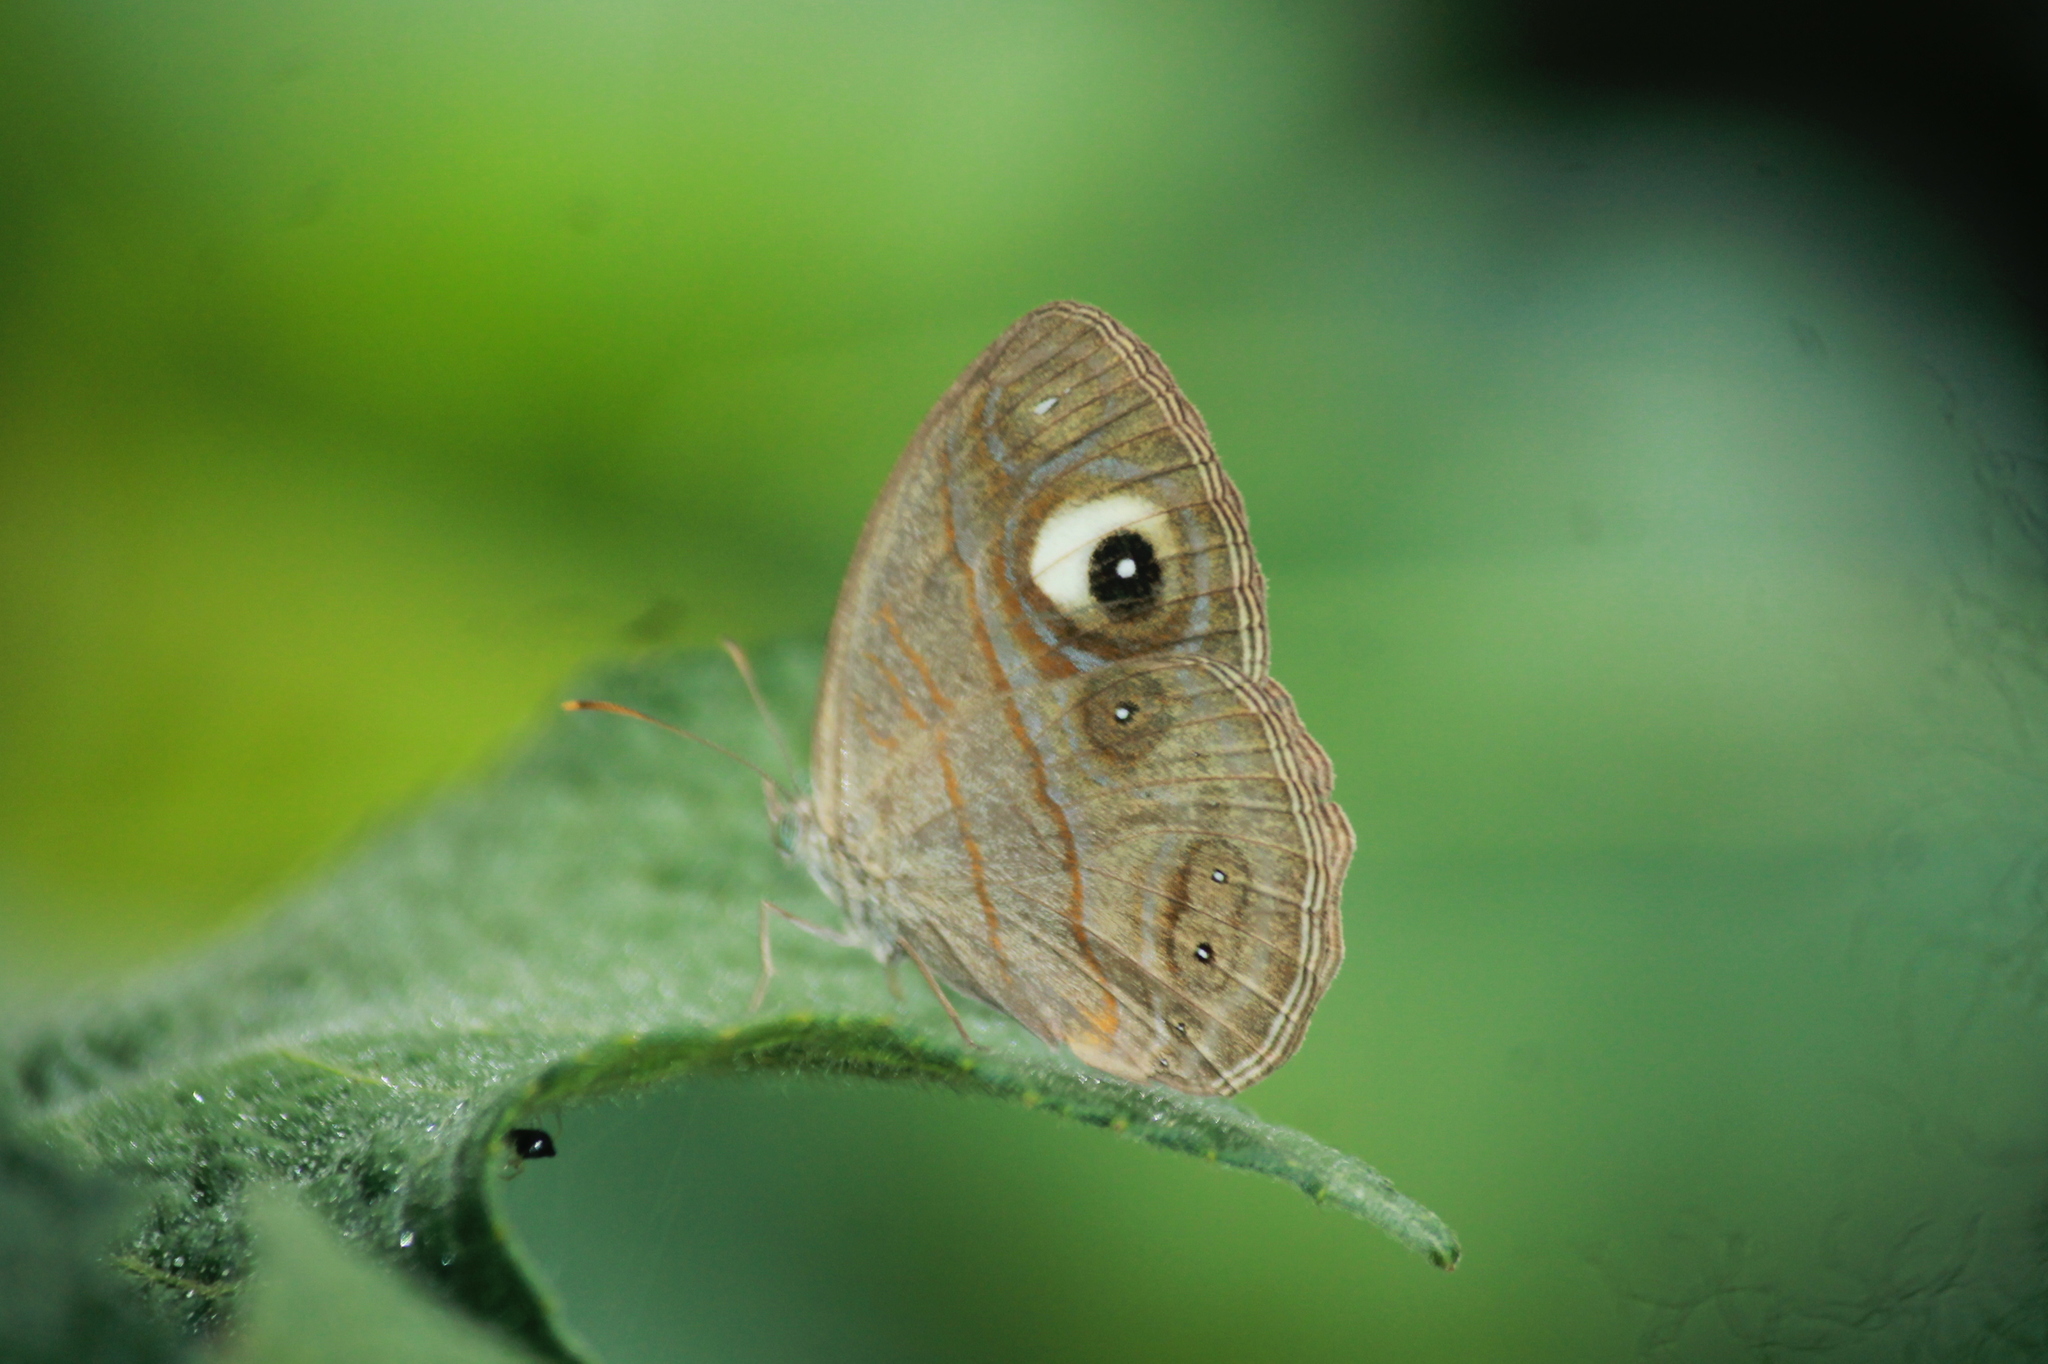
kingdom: Animalia
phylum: Arthropoda
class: Insecta
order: Lepidoptera
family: Nymphalidae
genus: Mycalesis
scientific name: Mycalesis patnia
